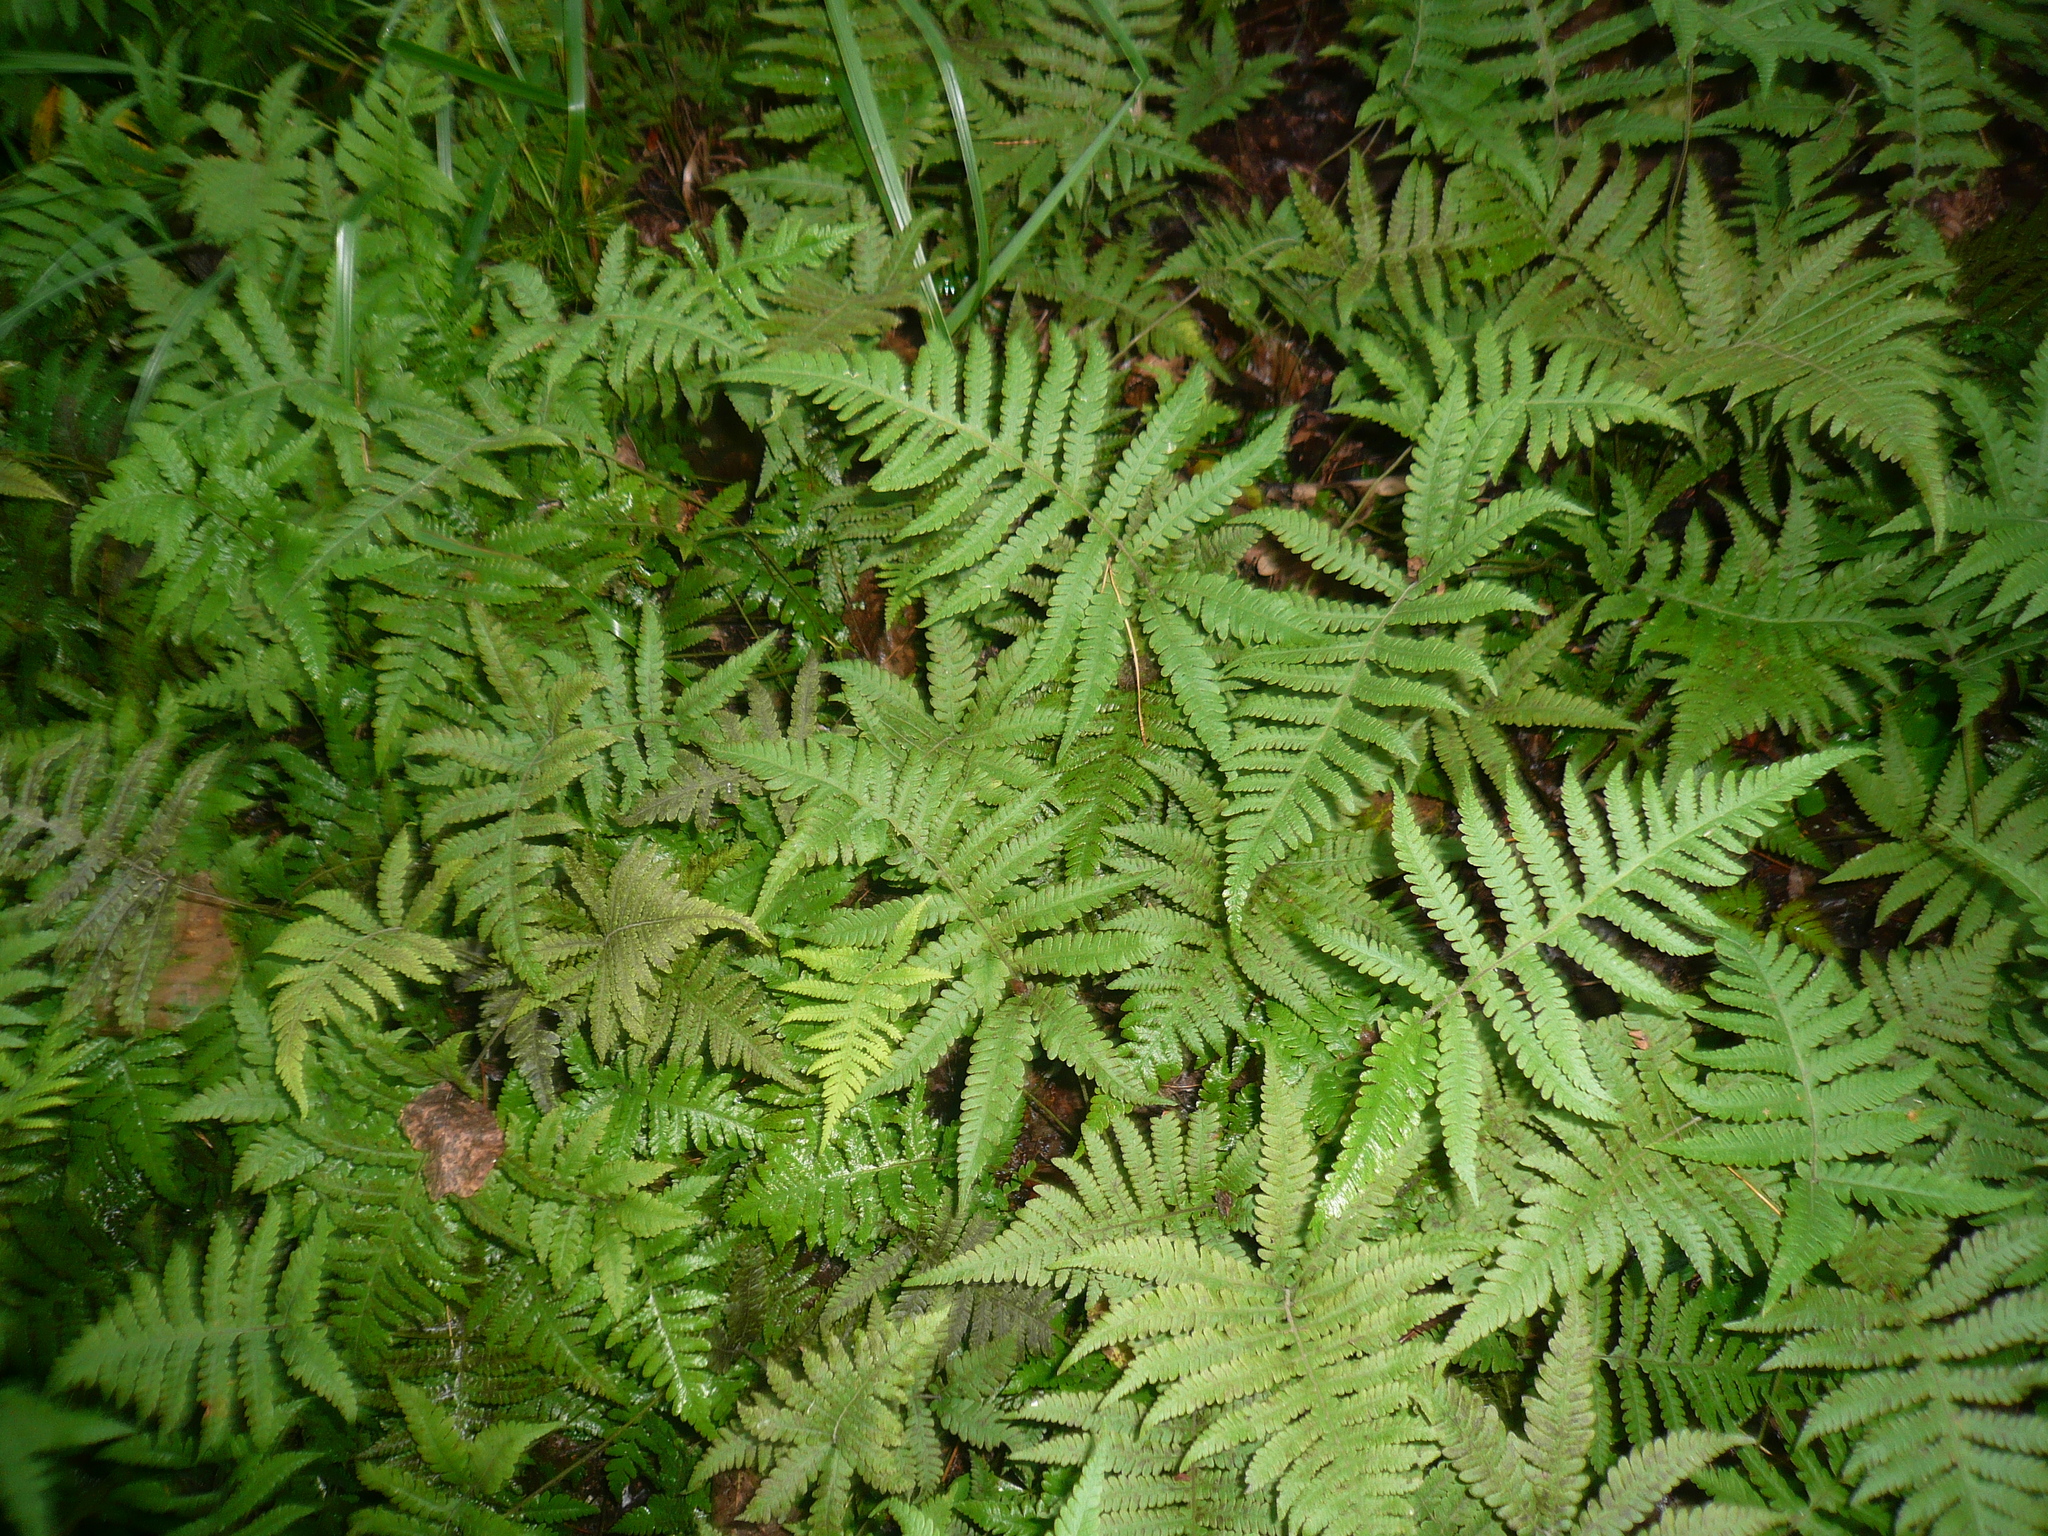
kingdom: Plantae
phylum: Tracheophyta
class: Polypodiopsida
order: Polypodiales
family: Thelypteridaceae
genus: Phegopteris
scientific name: Phegopteris connectilis
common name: Beech fern
